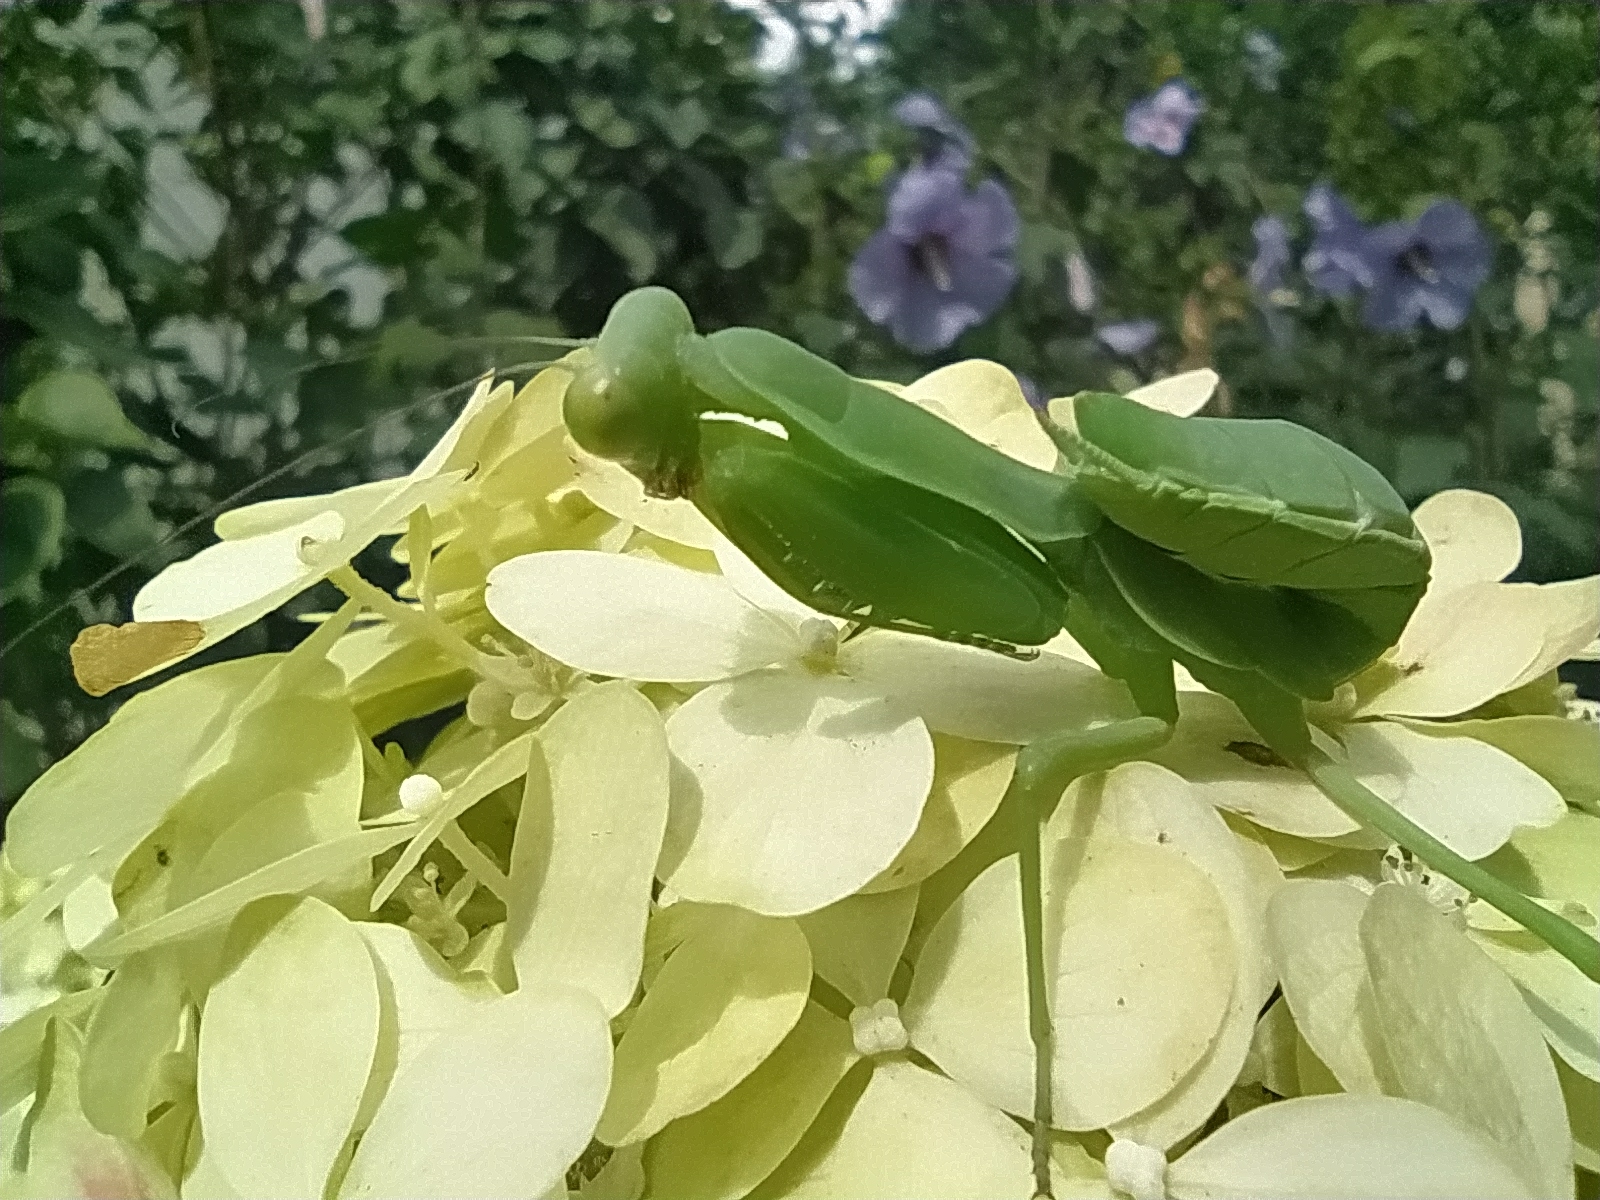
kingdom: Animalia
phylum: Arthropoda
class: Insecta
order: Mantodea
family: Mantidae
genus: Hierodula
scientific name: Hierodula transcaucasica
